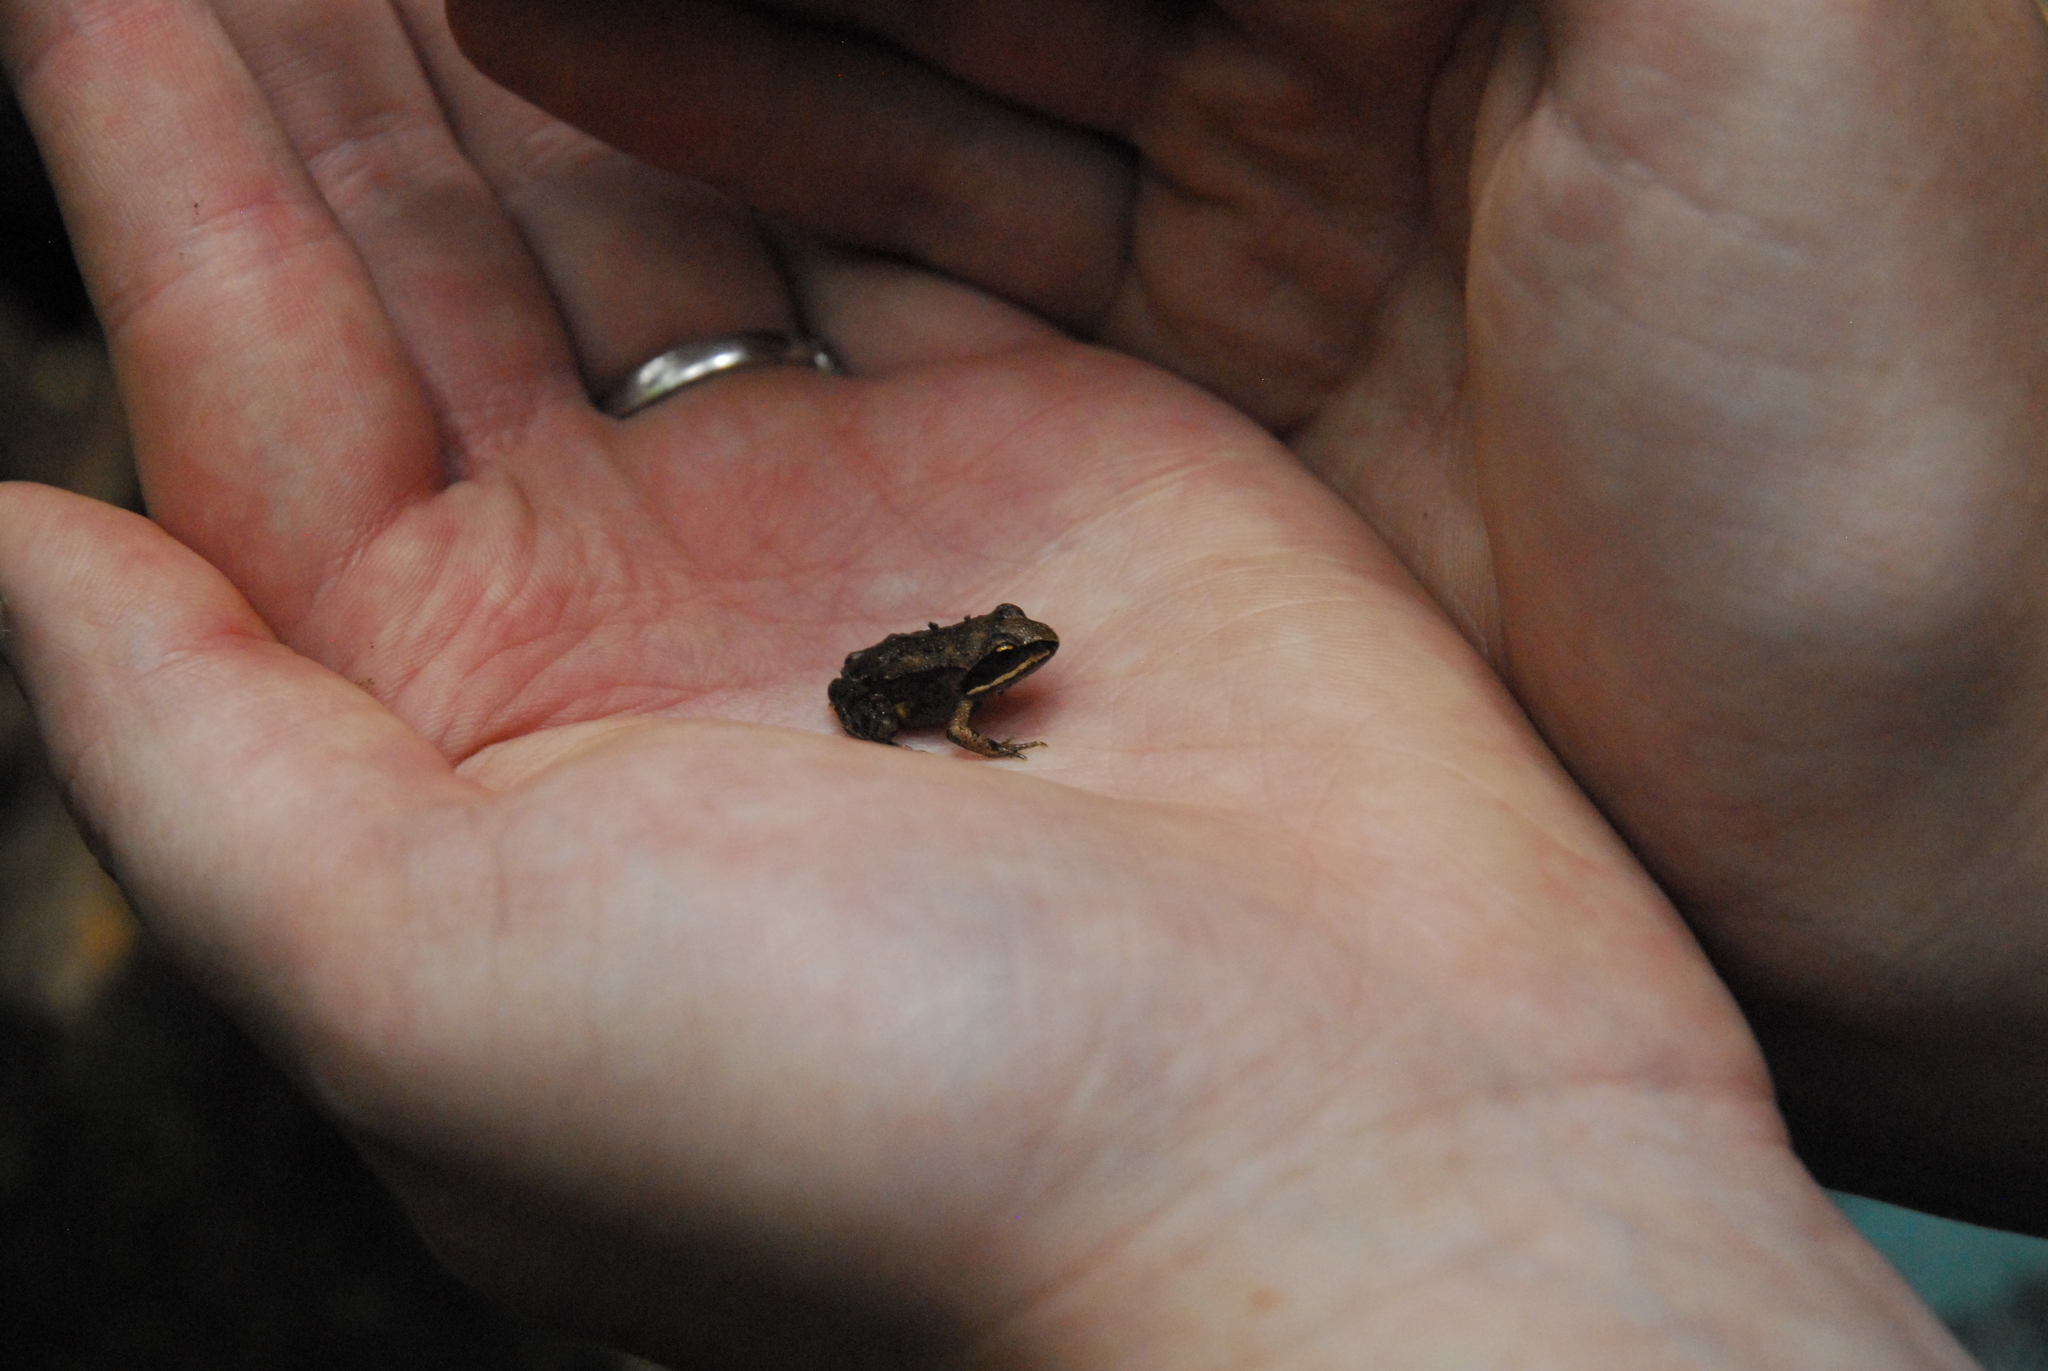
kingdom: Animalia
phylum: Chordata
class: Amphibia
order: Anura
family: Ranidae
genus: Lithobates
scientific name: Lithobates sylvaticus
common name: Wood frog
